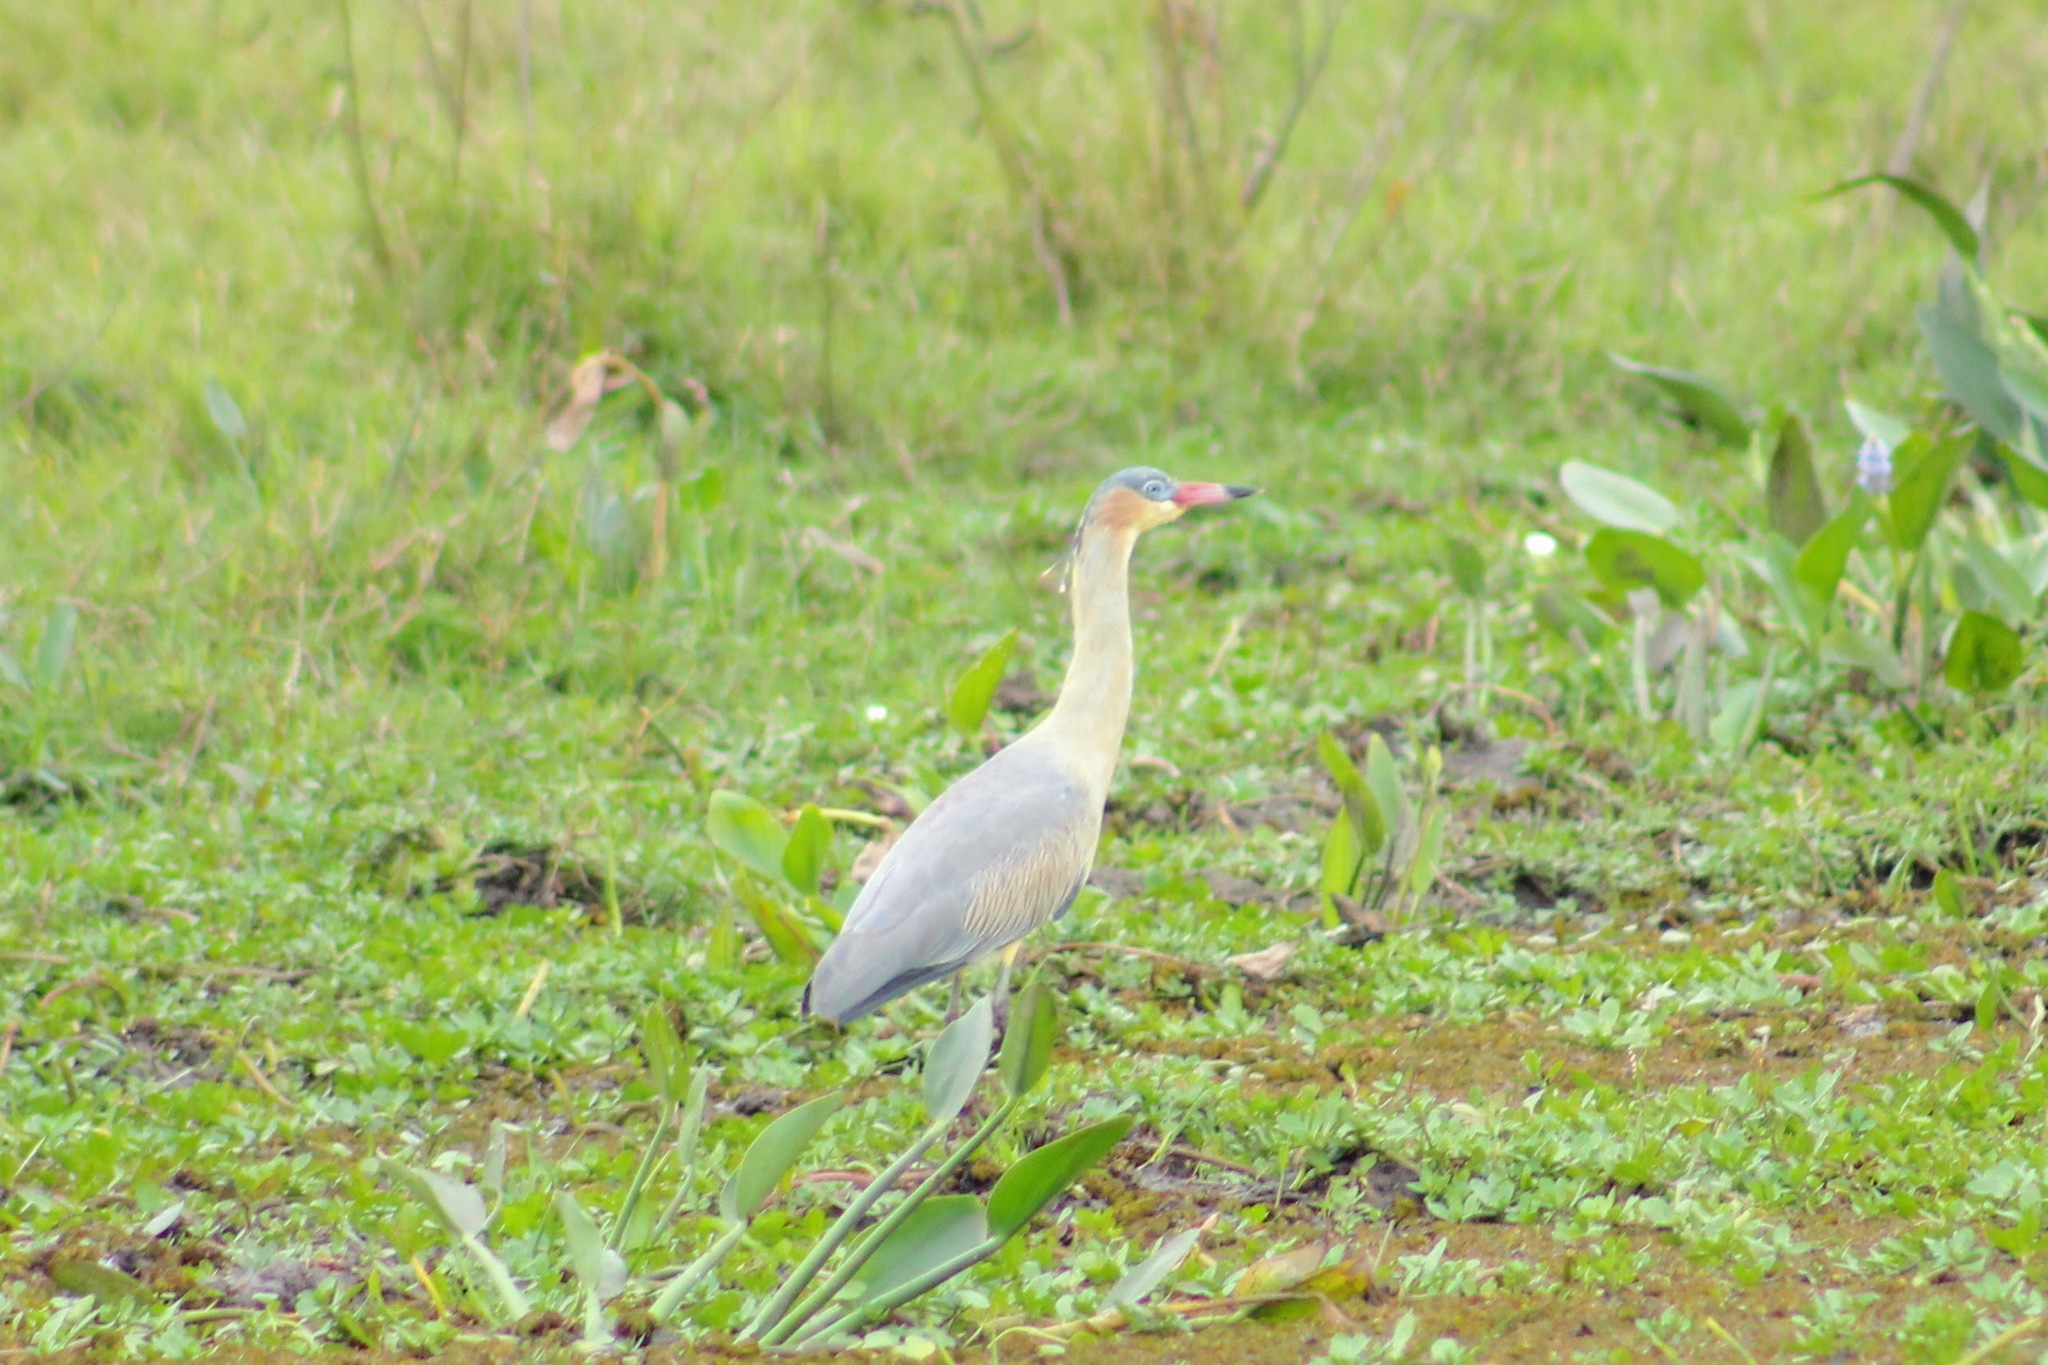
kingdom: Animalia
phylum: Chordata
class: Aves
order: Pelecaniformes
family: Ardeidae
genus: Syrigma
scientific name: Syrigma sibilatrix
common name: Whistling heron
